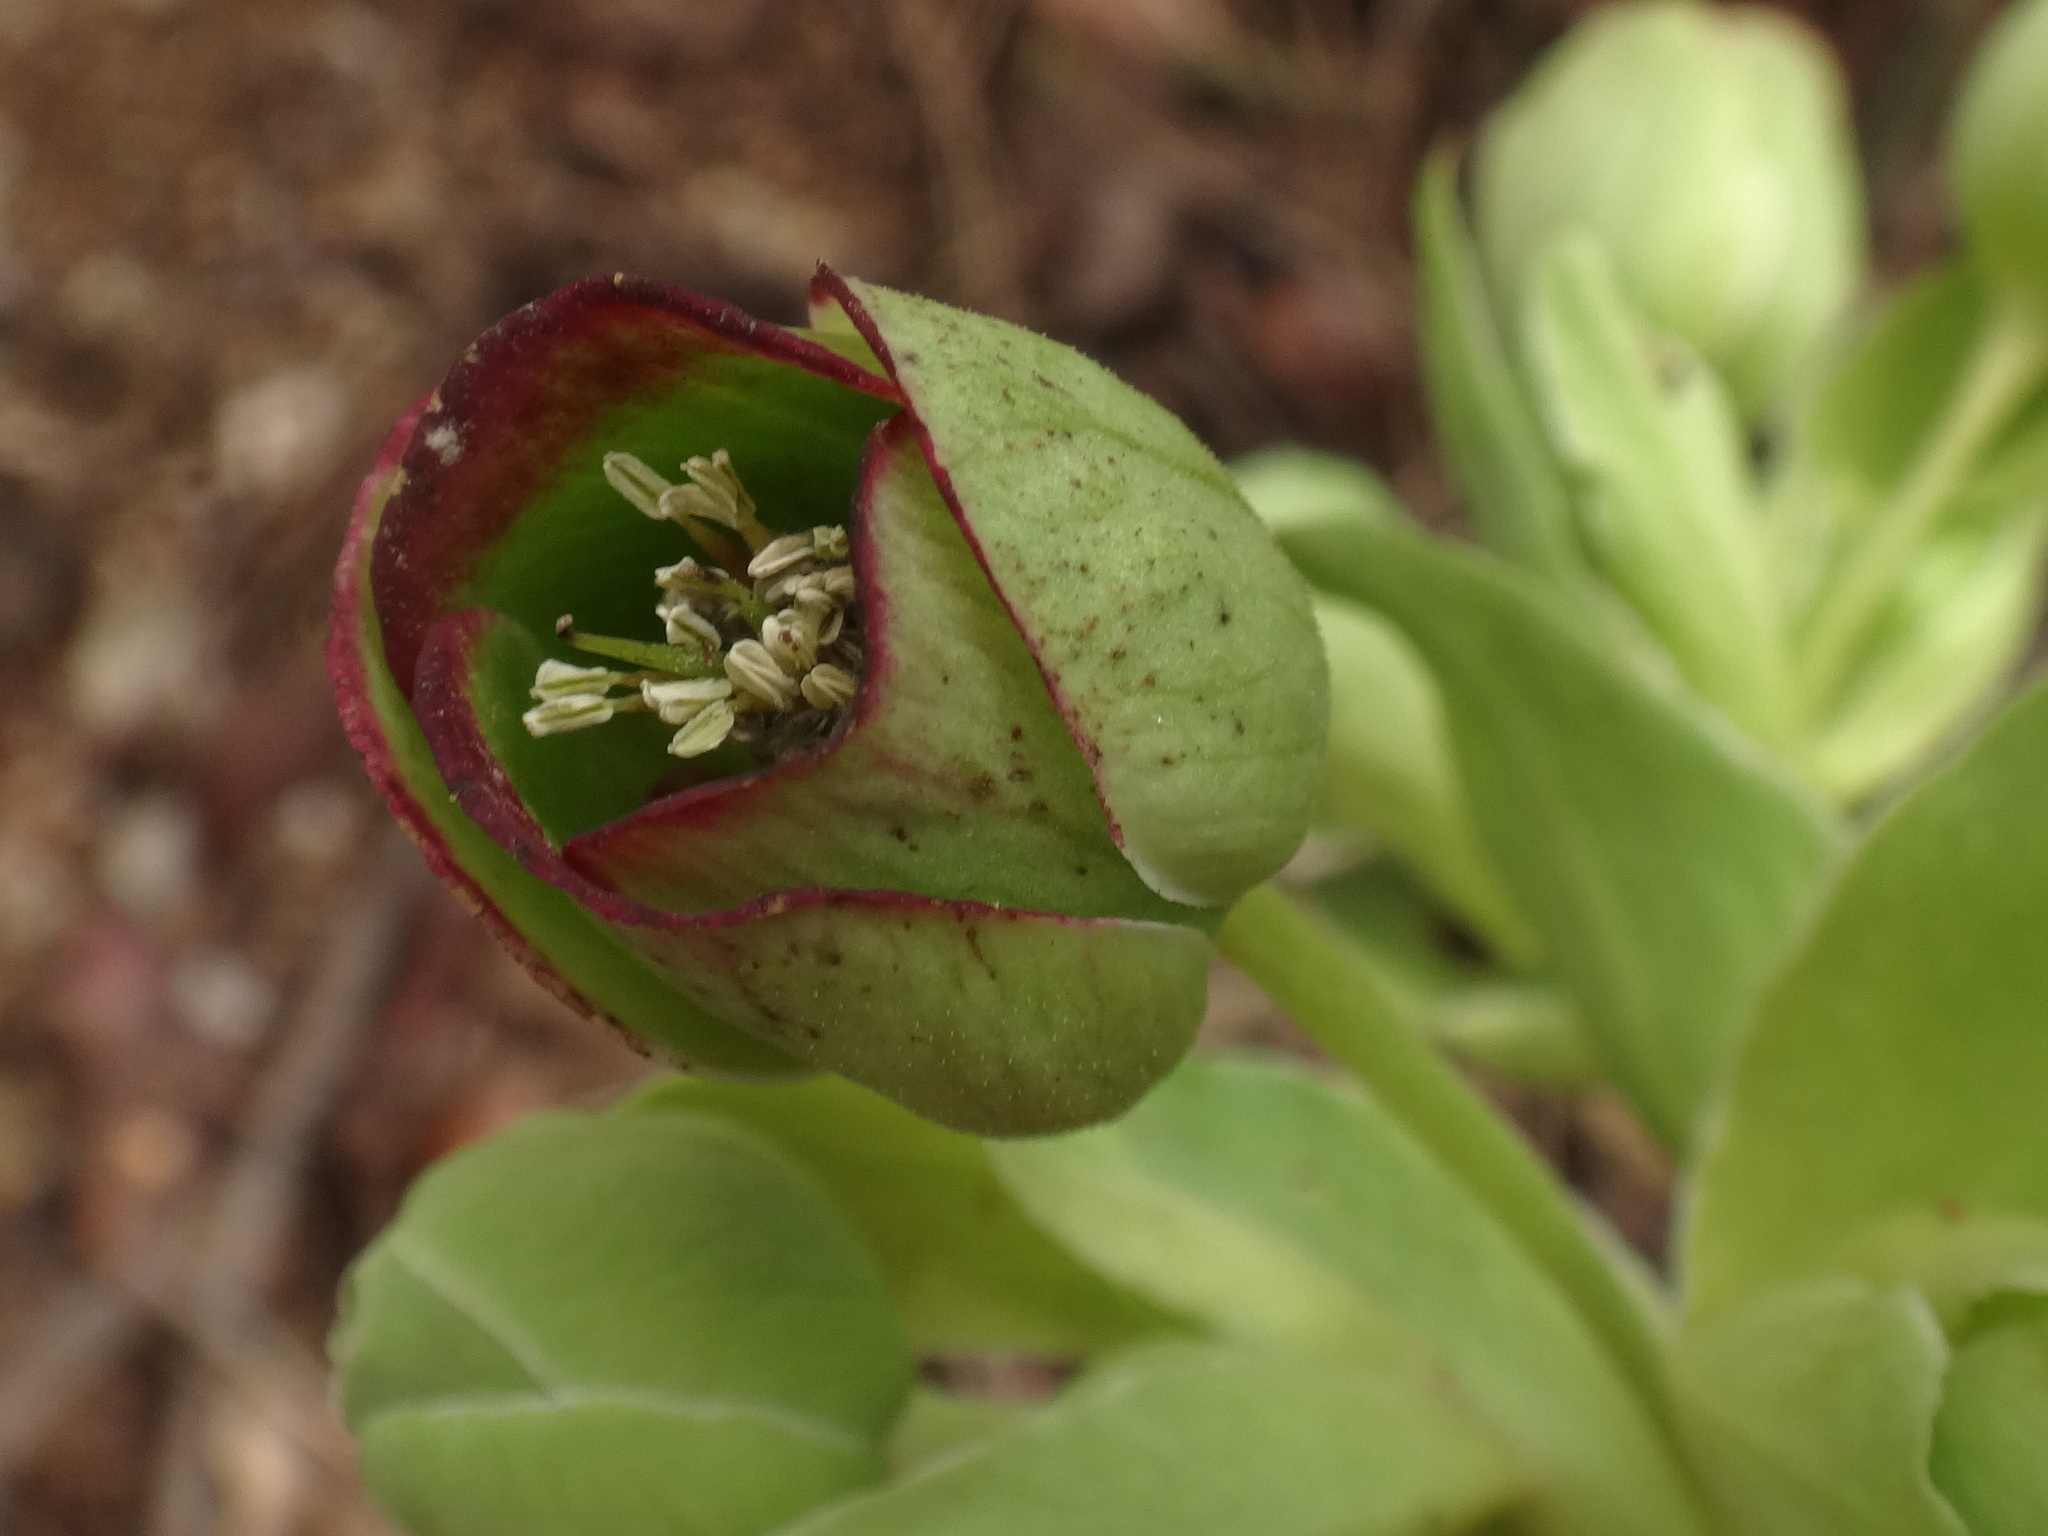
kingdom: Plantae
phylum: Tracheophyta
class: Magnoliopsida
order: Ranunculales
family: Ranunculaceae
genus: Helleborus
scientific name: Helleborus foetidus
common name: Stinking hellebore
